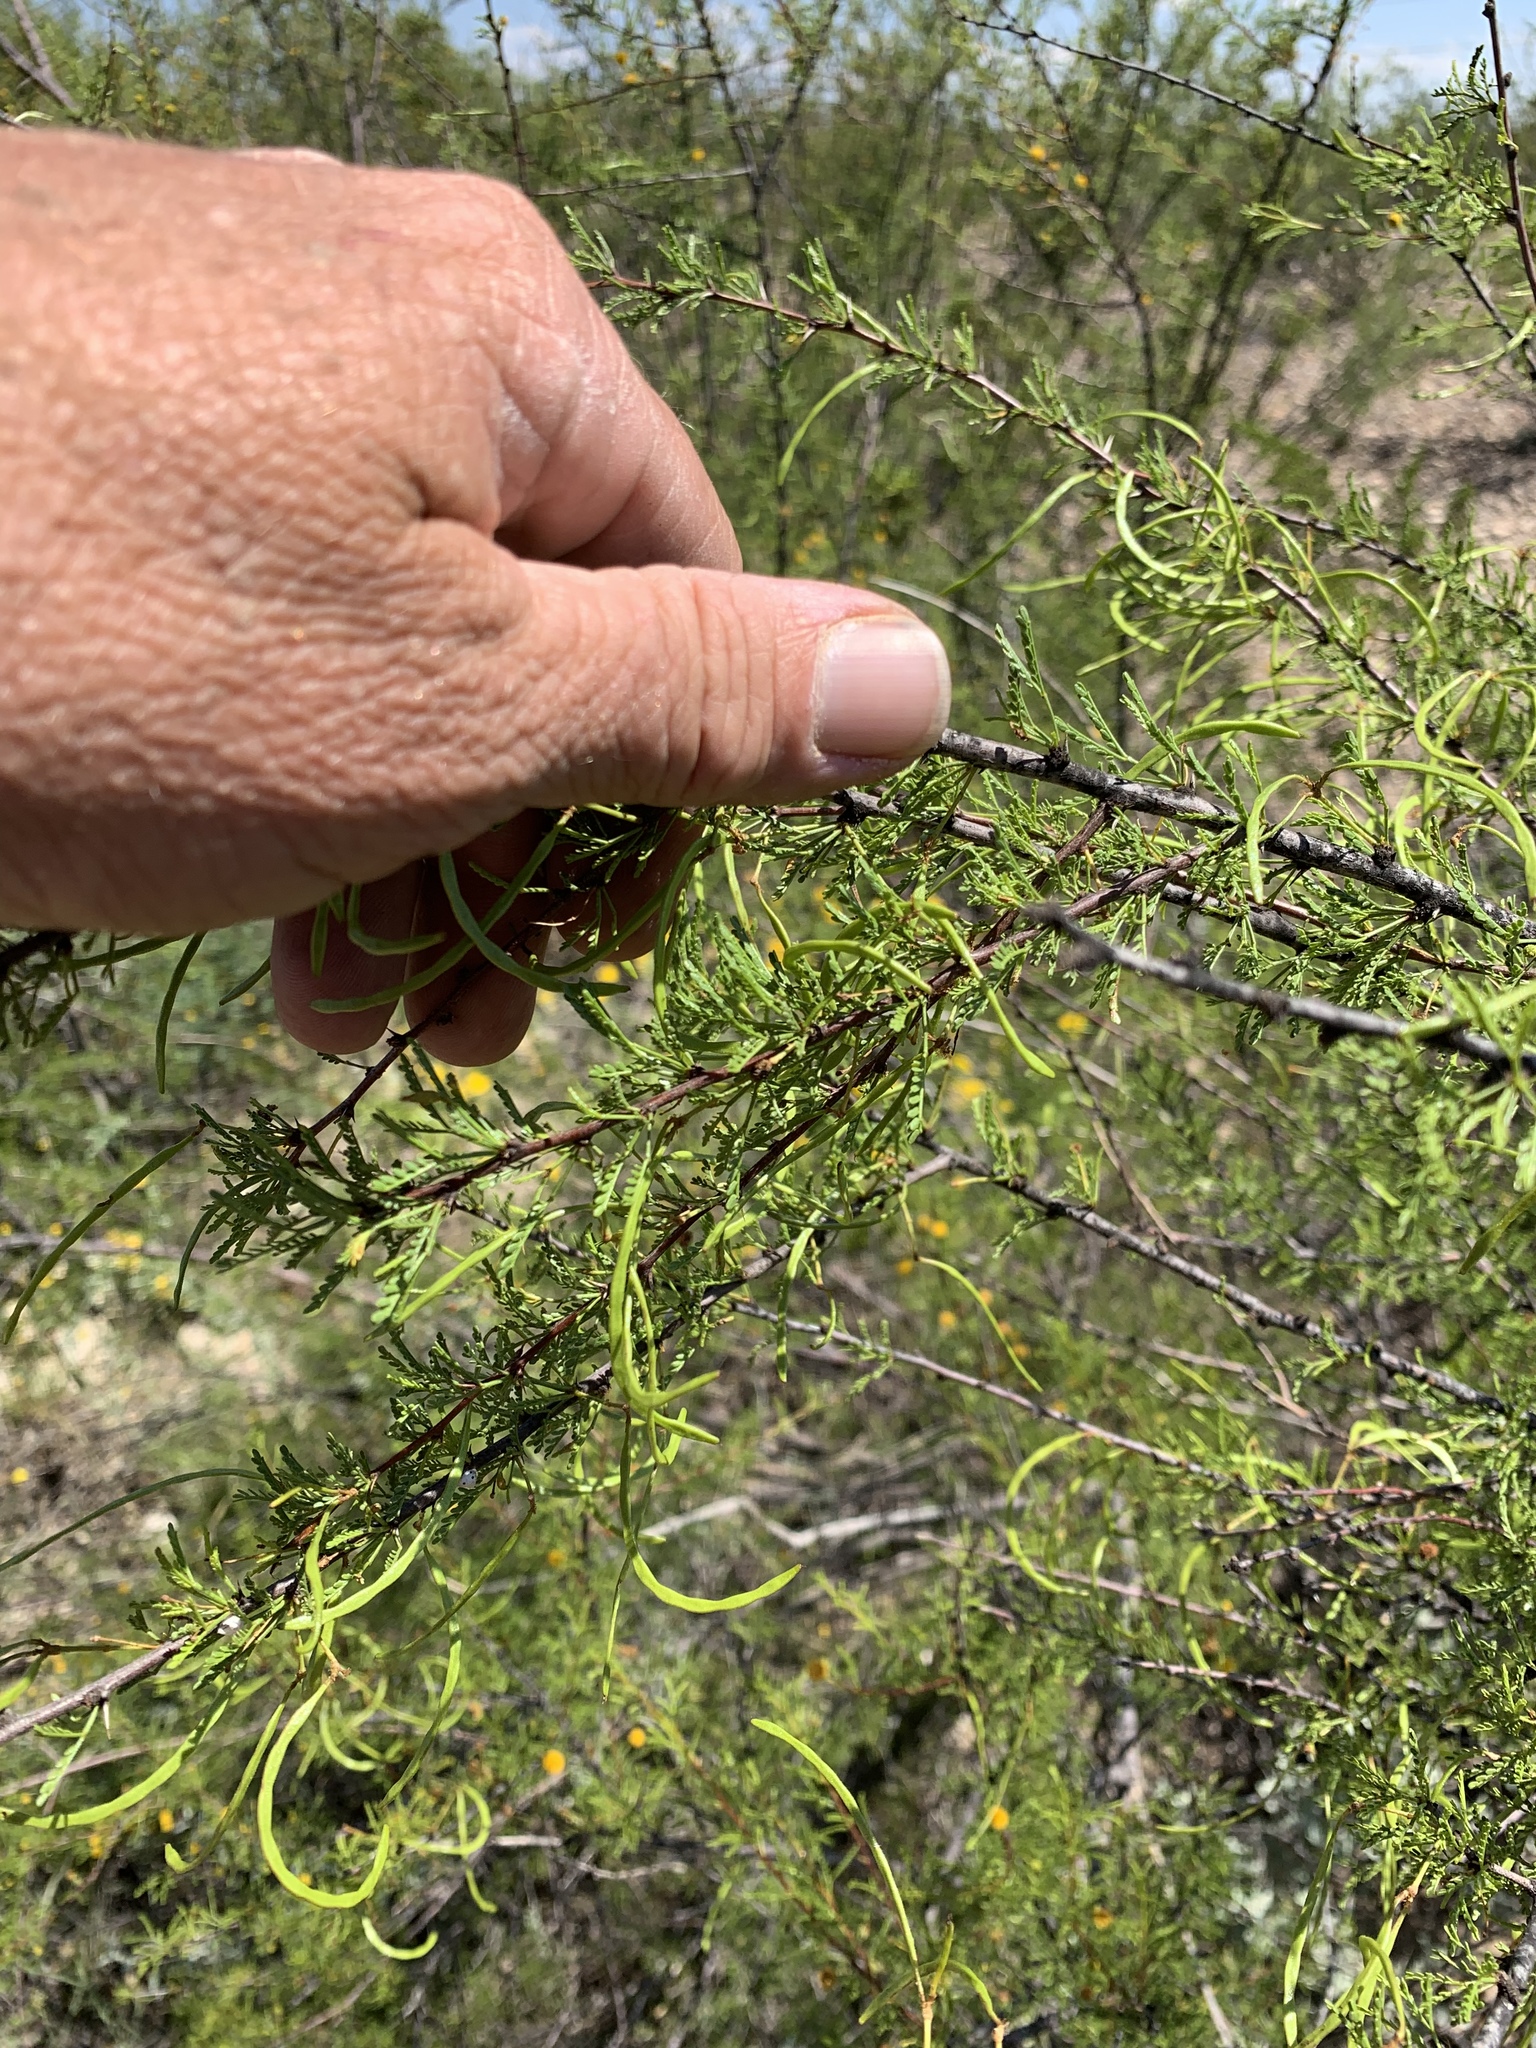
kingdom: Plantae
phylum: Tracheophyta
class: Magnoliopsida
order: Fabales
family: Fabaceae
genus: Vachellia
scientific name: Vachellia vernicosa
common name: Viscid acacia
